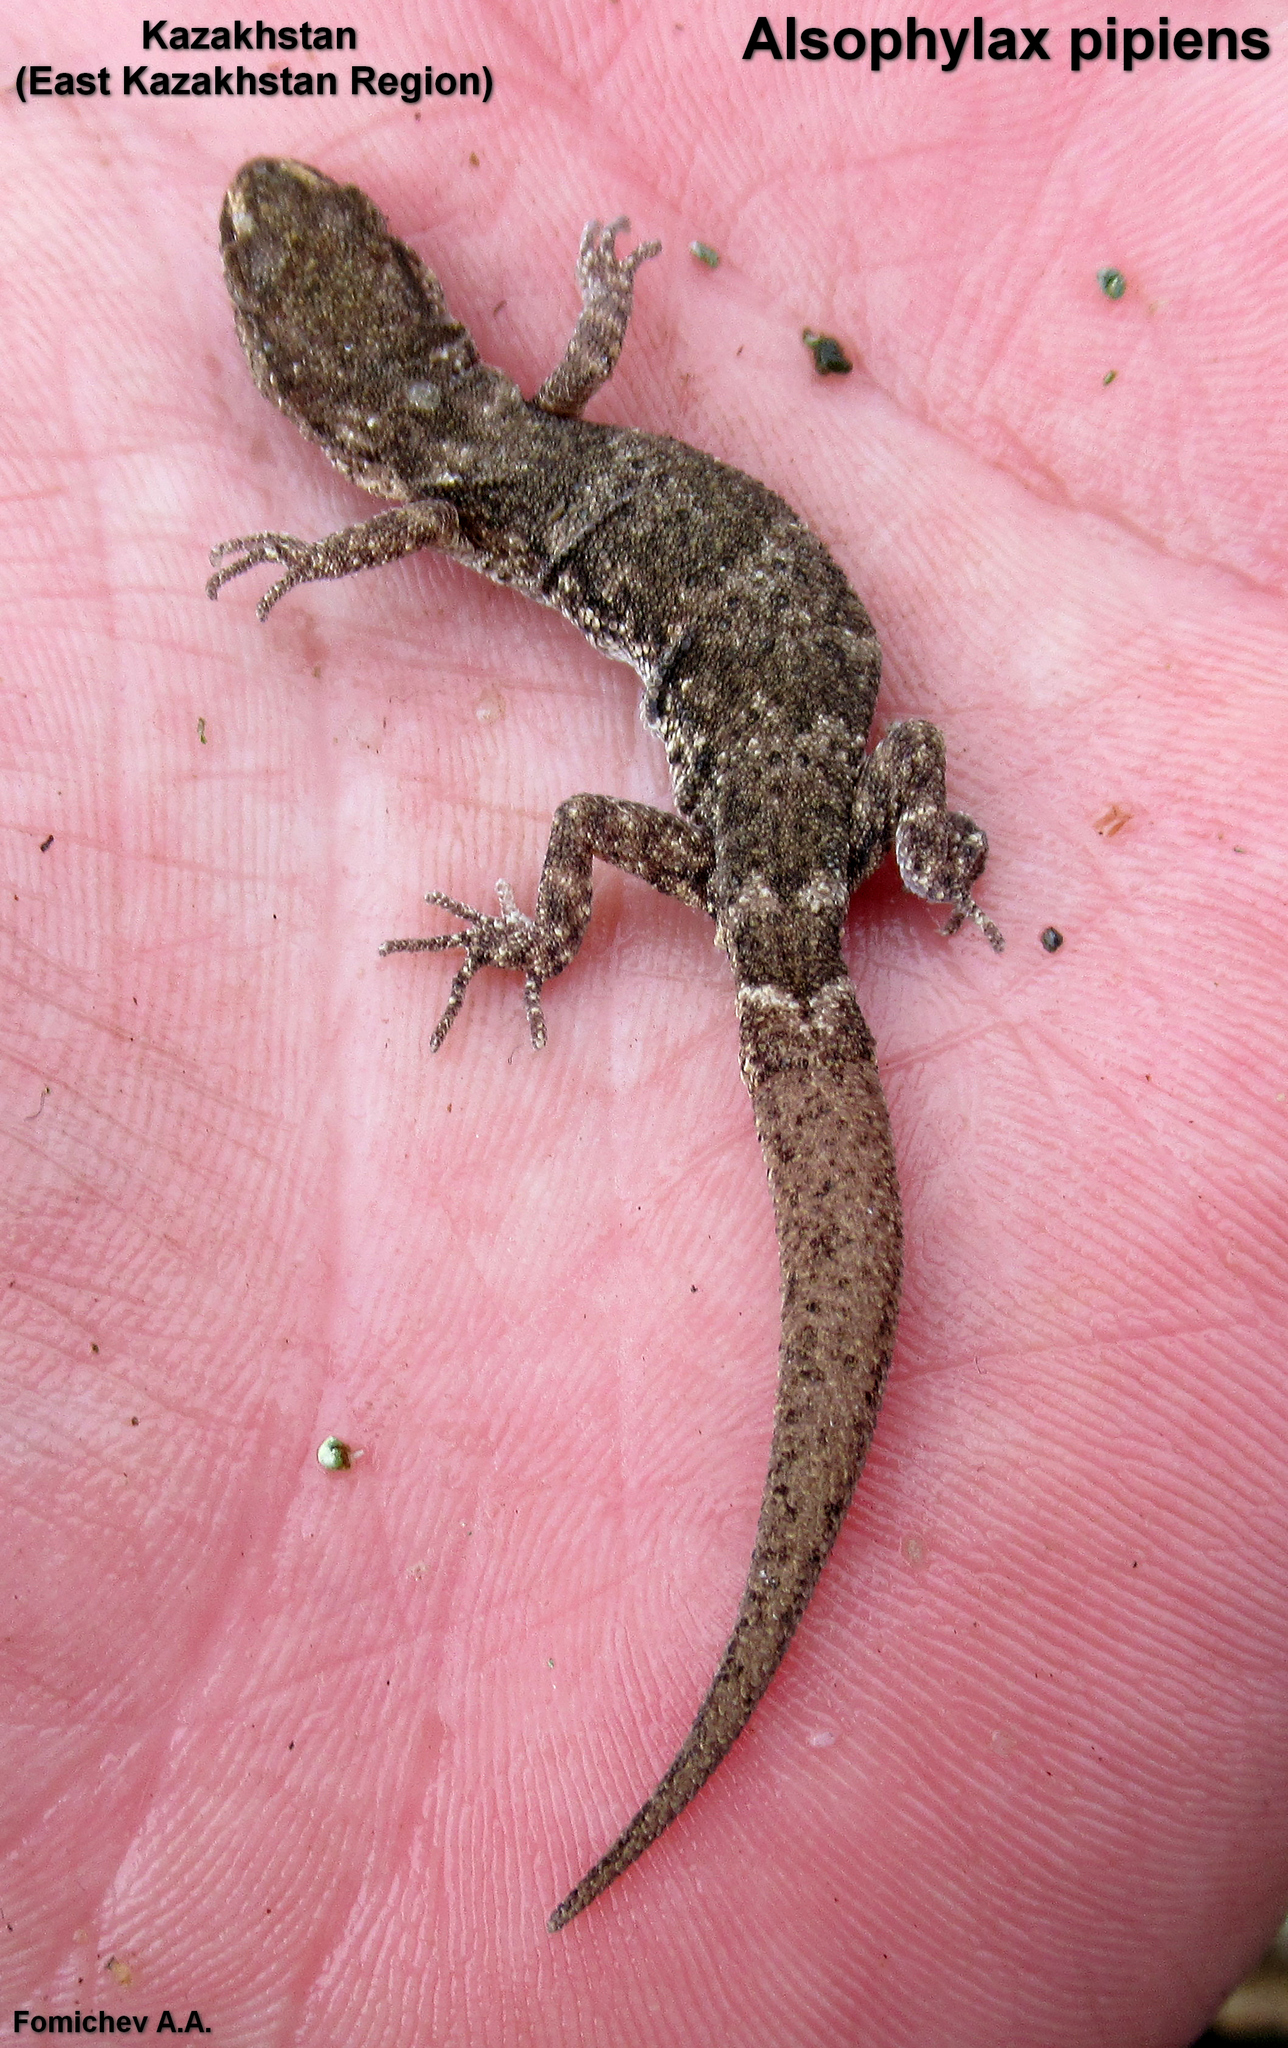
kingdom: Animalia
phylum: Chordata
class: Squamata
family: Gekkonidae
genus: Alsophylax
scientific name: Alsophylax pipiens
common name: Even-fingered gecko
